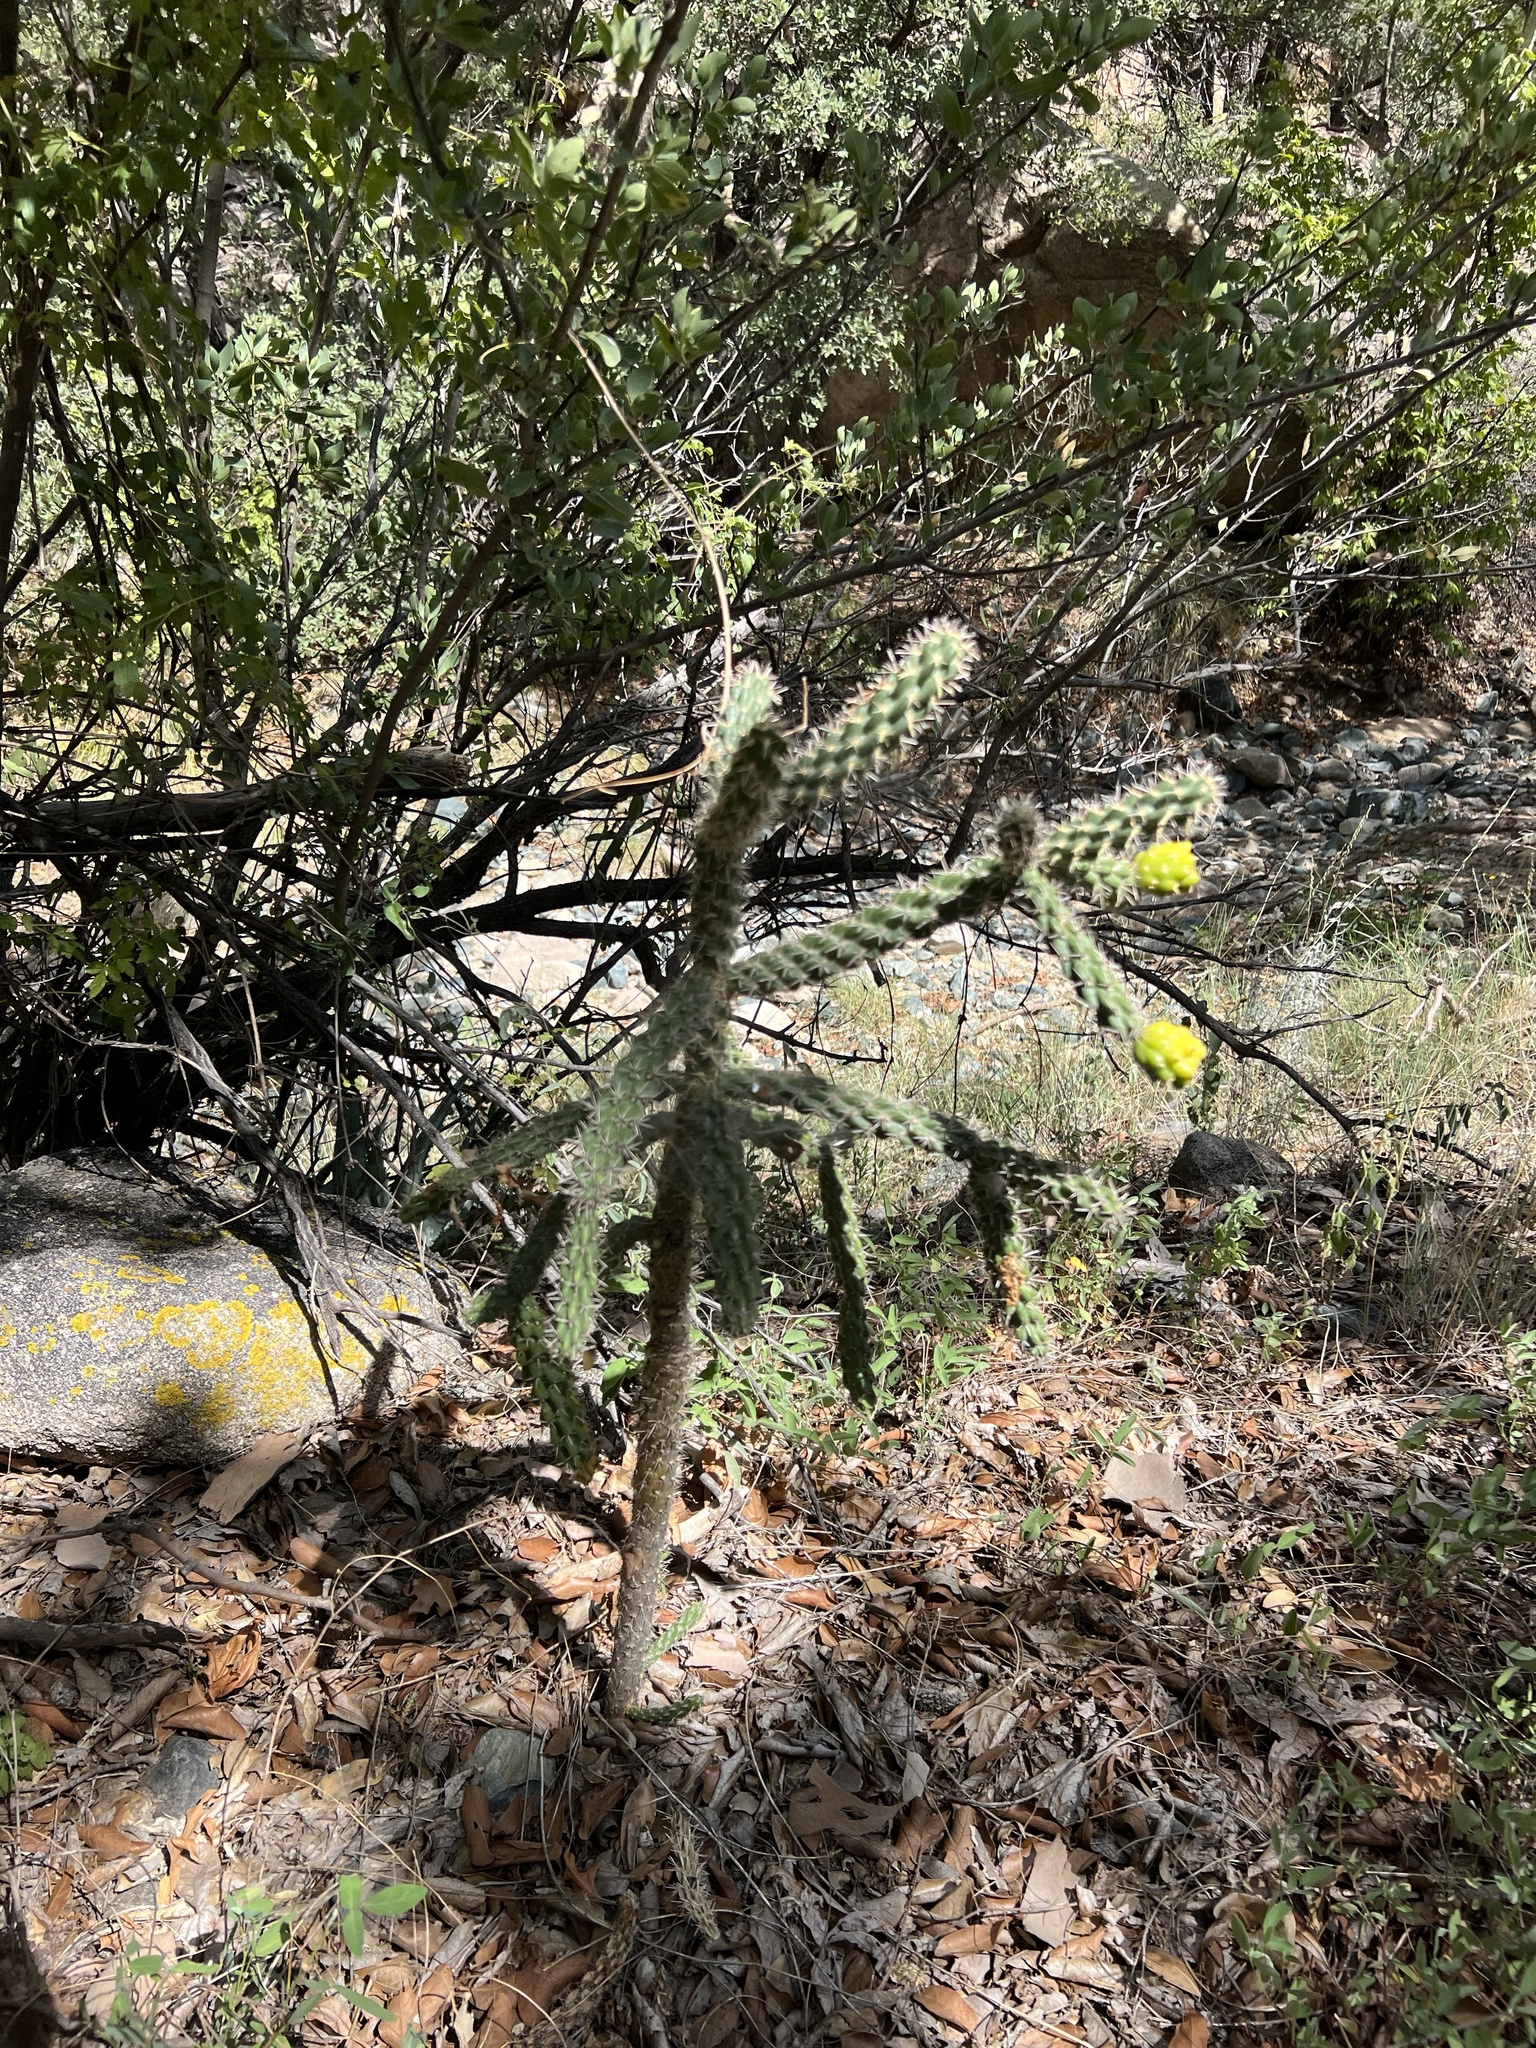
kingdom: Plantae
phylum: Tracheophyta
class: Magnoliopsida
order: Caryophyllales
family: Cactaceae
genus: Cylindropuntia
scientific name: Cylindropuntia imbricata
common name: Candelabrum cactus
